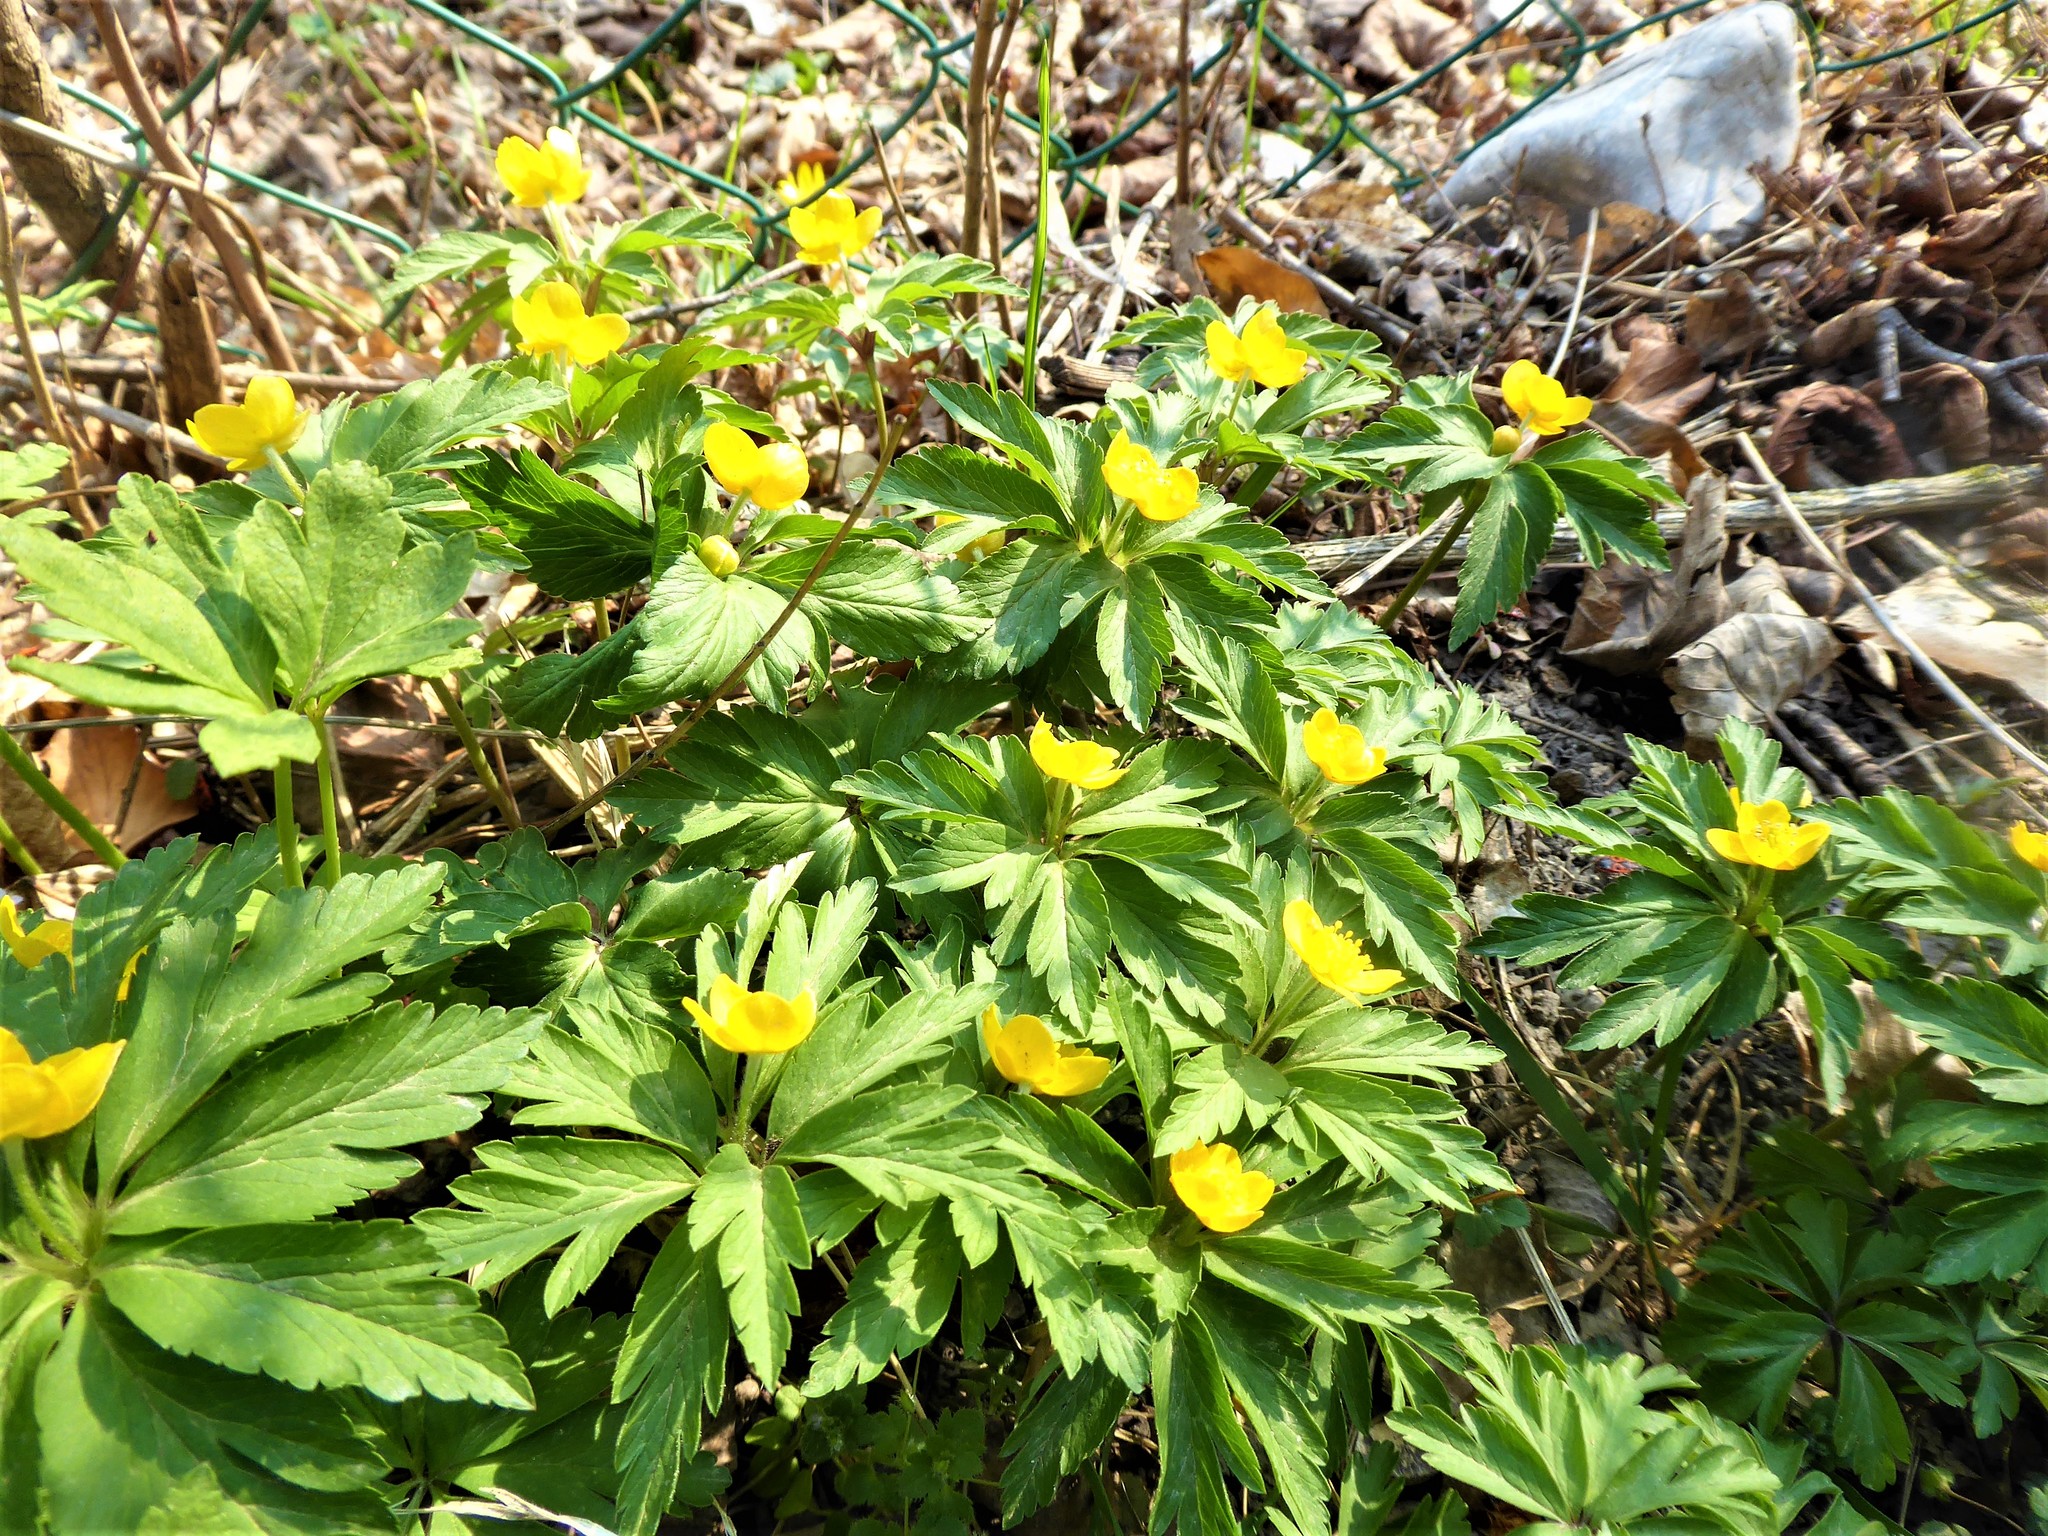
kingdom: Plantae
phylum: Tracheophyta
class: Magnoliopsida
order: Ranunculales
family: Ranunculaceae
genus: Anemone
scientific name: Anemone ranunculoides
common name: Yellow anemone
